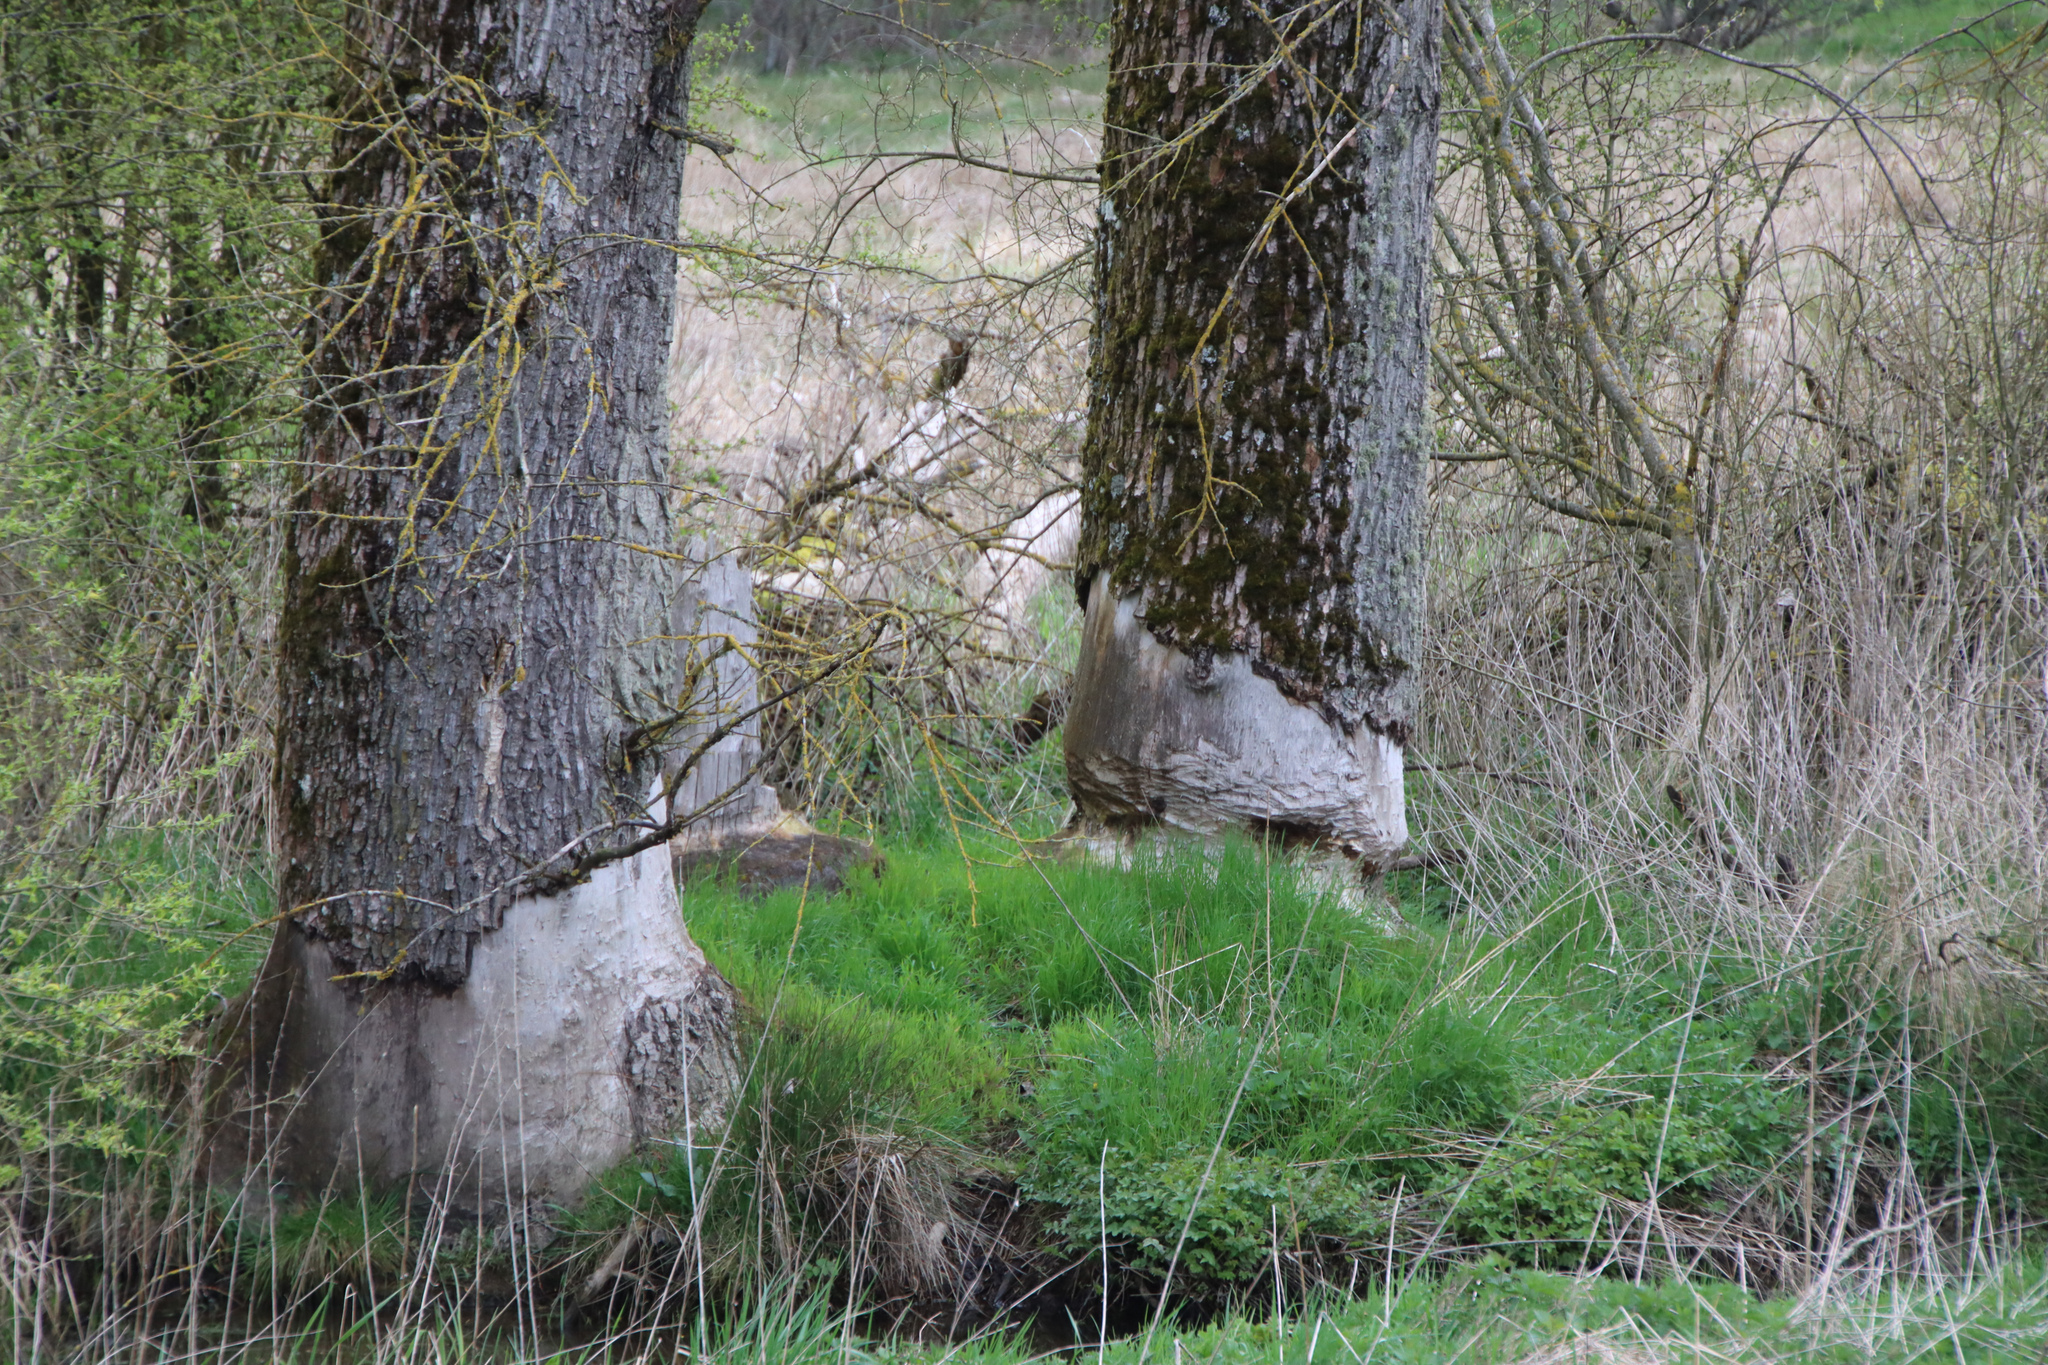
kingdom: Animalia
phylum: Chordata
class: Mammalia
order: Rodentia
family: Castoridae
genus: Castor
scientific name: Castor fiber
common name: Eurasian beaver
